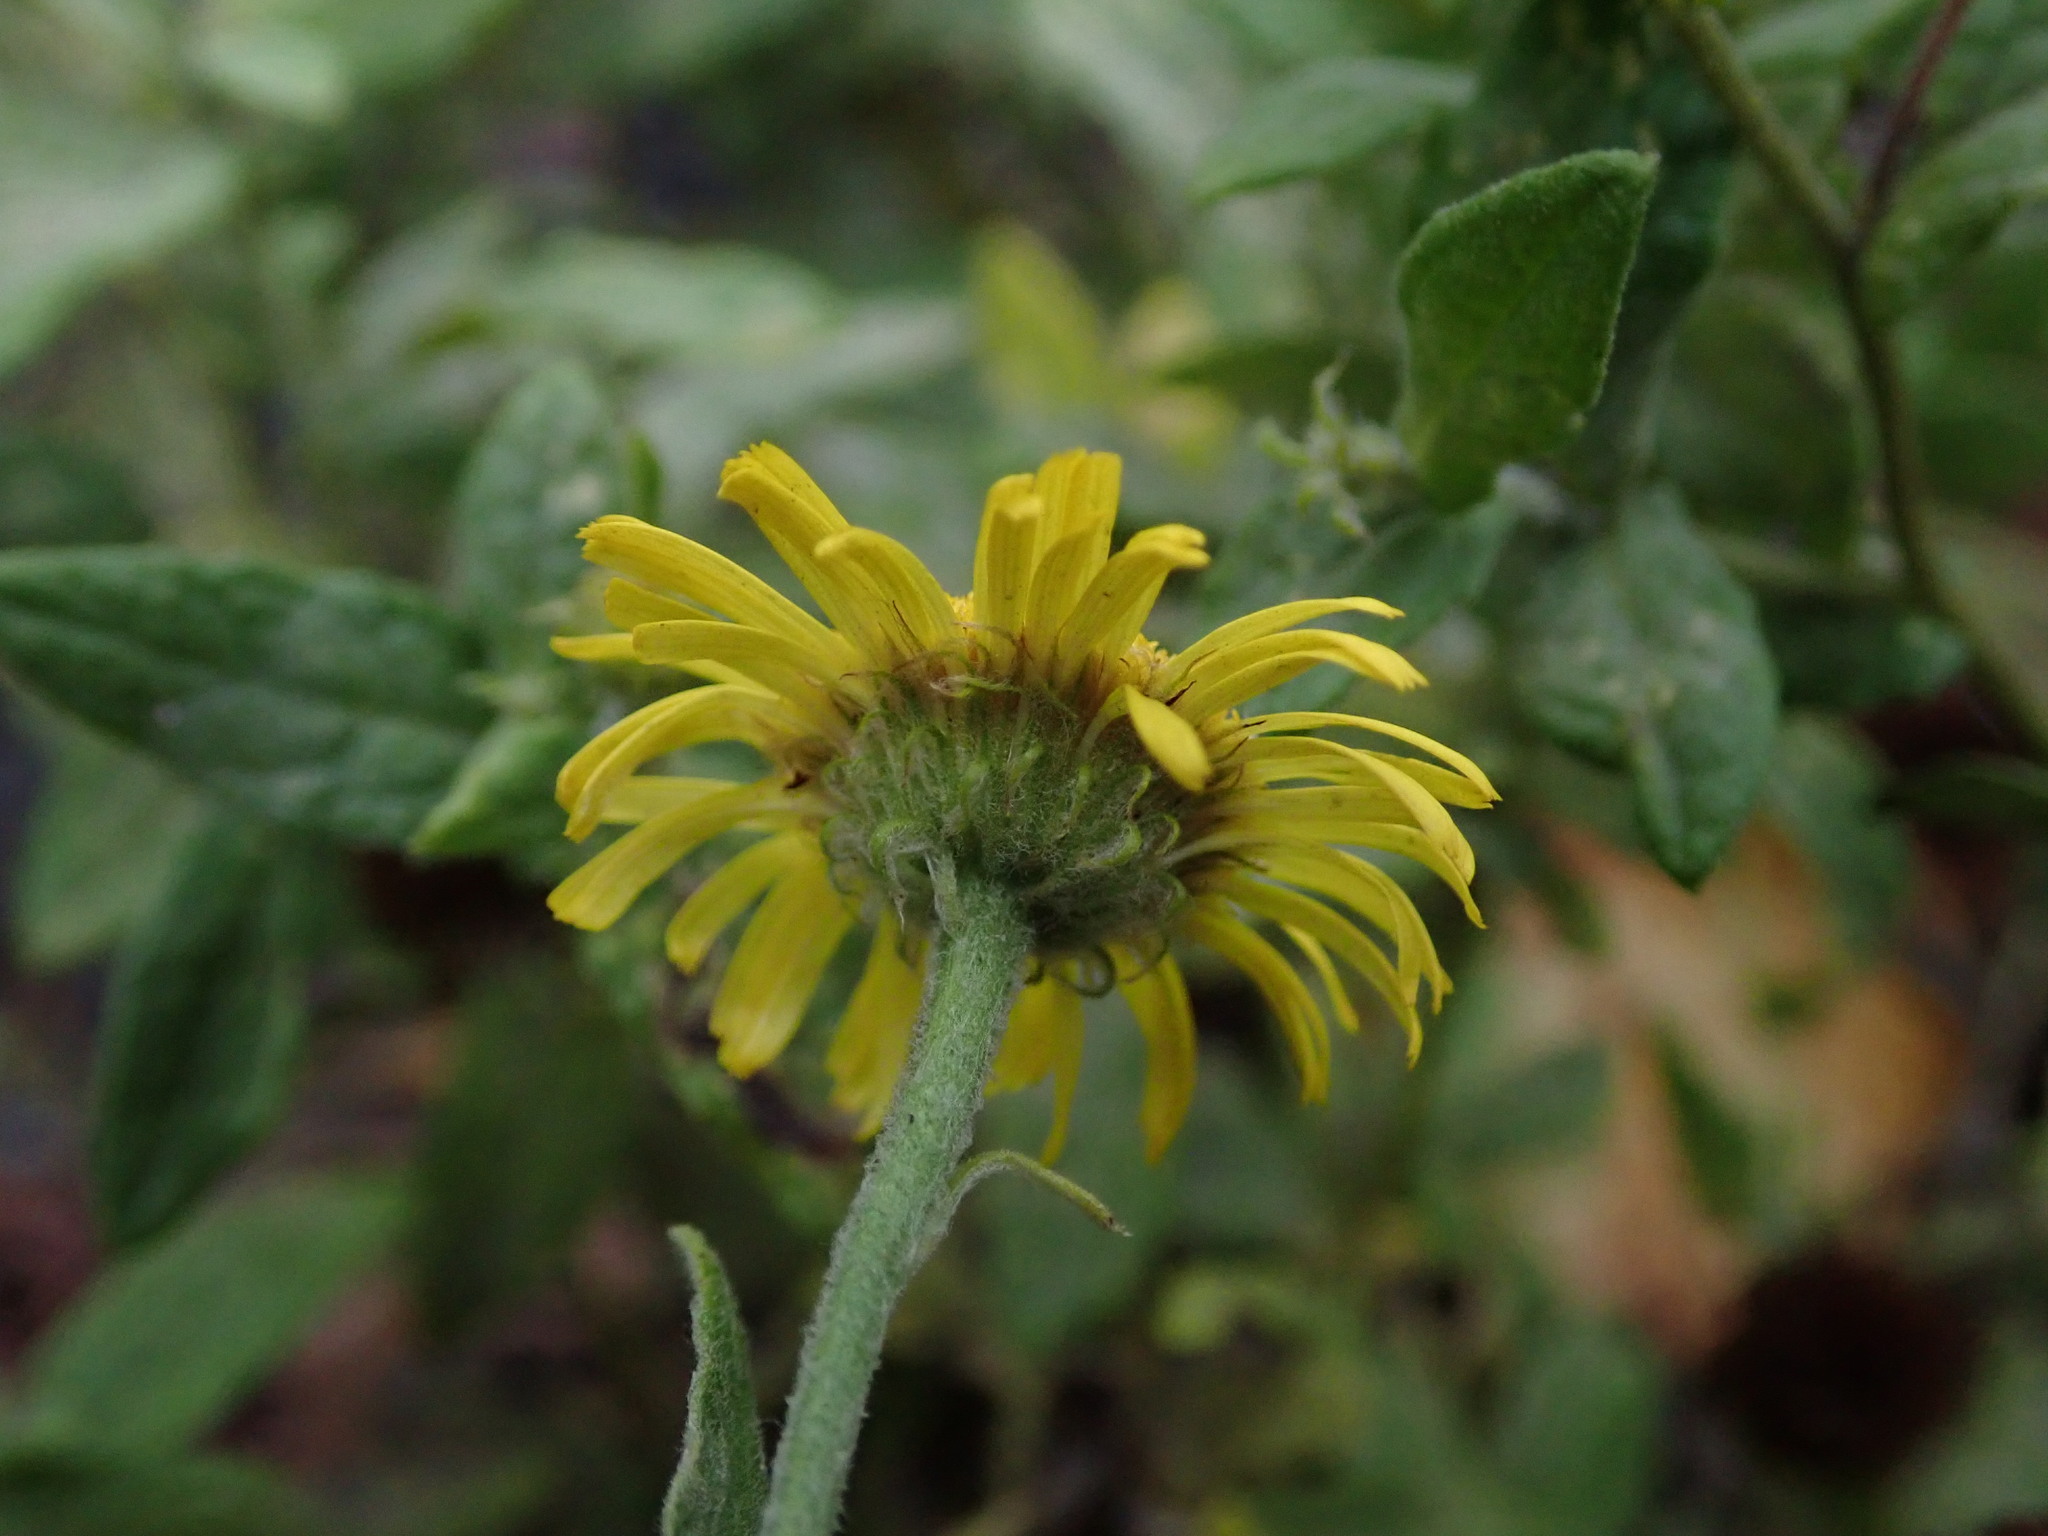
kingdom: Plantae
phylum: Tracheophyta
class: Magnoliopsida
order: Asterales
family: Asteraceae
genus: Pulicaria
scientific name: Pulicaria dysenterica
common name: Common fleabane
